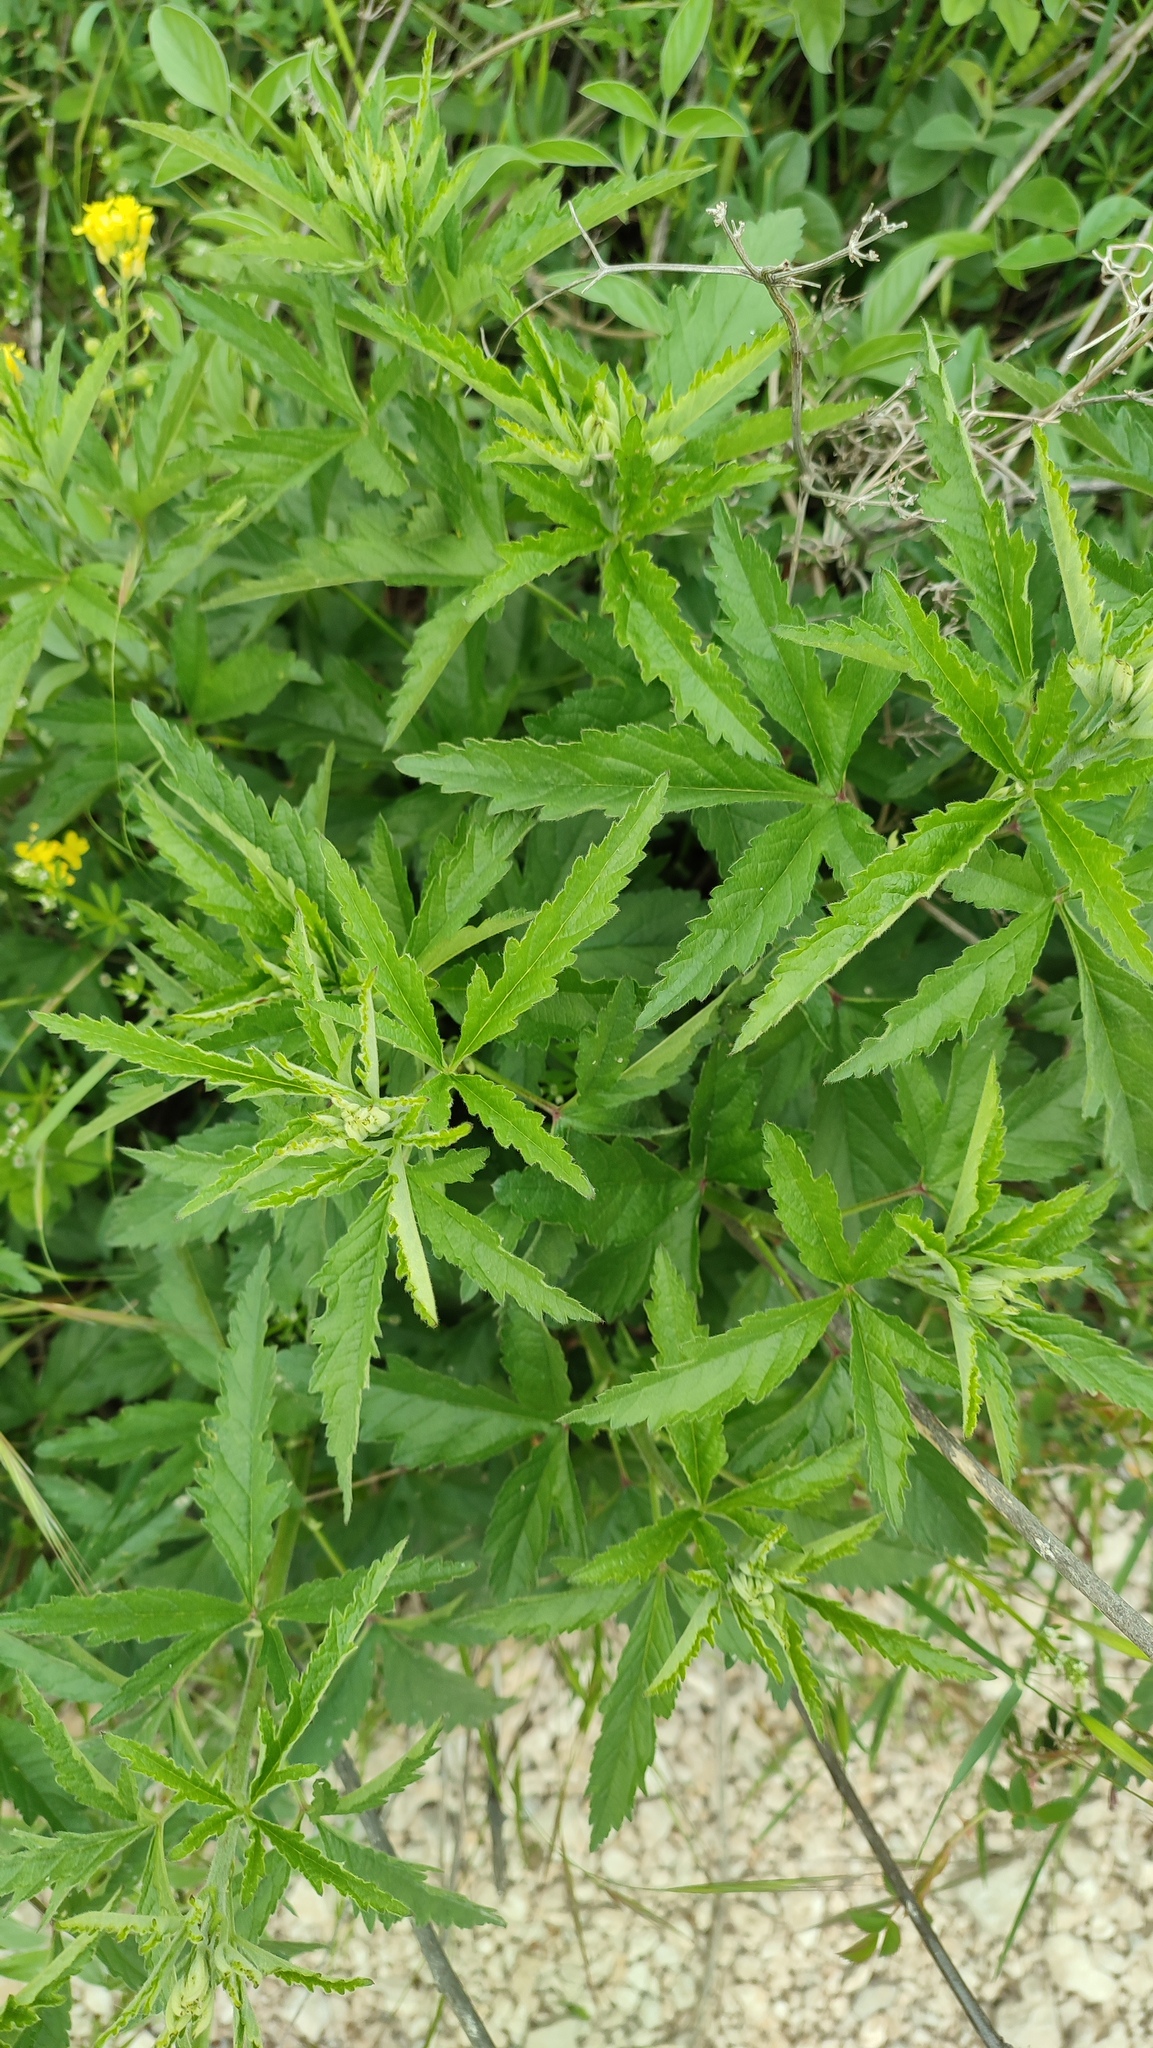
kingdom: Plantae
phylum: Tracheophyta
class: Magnoliopsida
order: Malvales
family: Malvaceae
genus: Althaea
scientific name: Althaea cannabina
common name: Palm-leaf marshmallow
